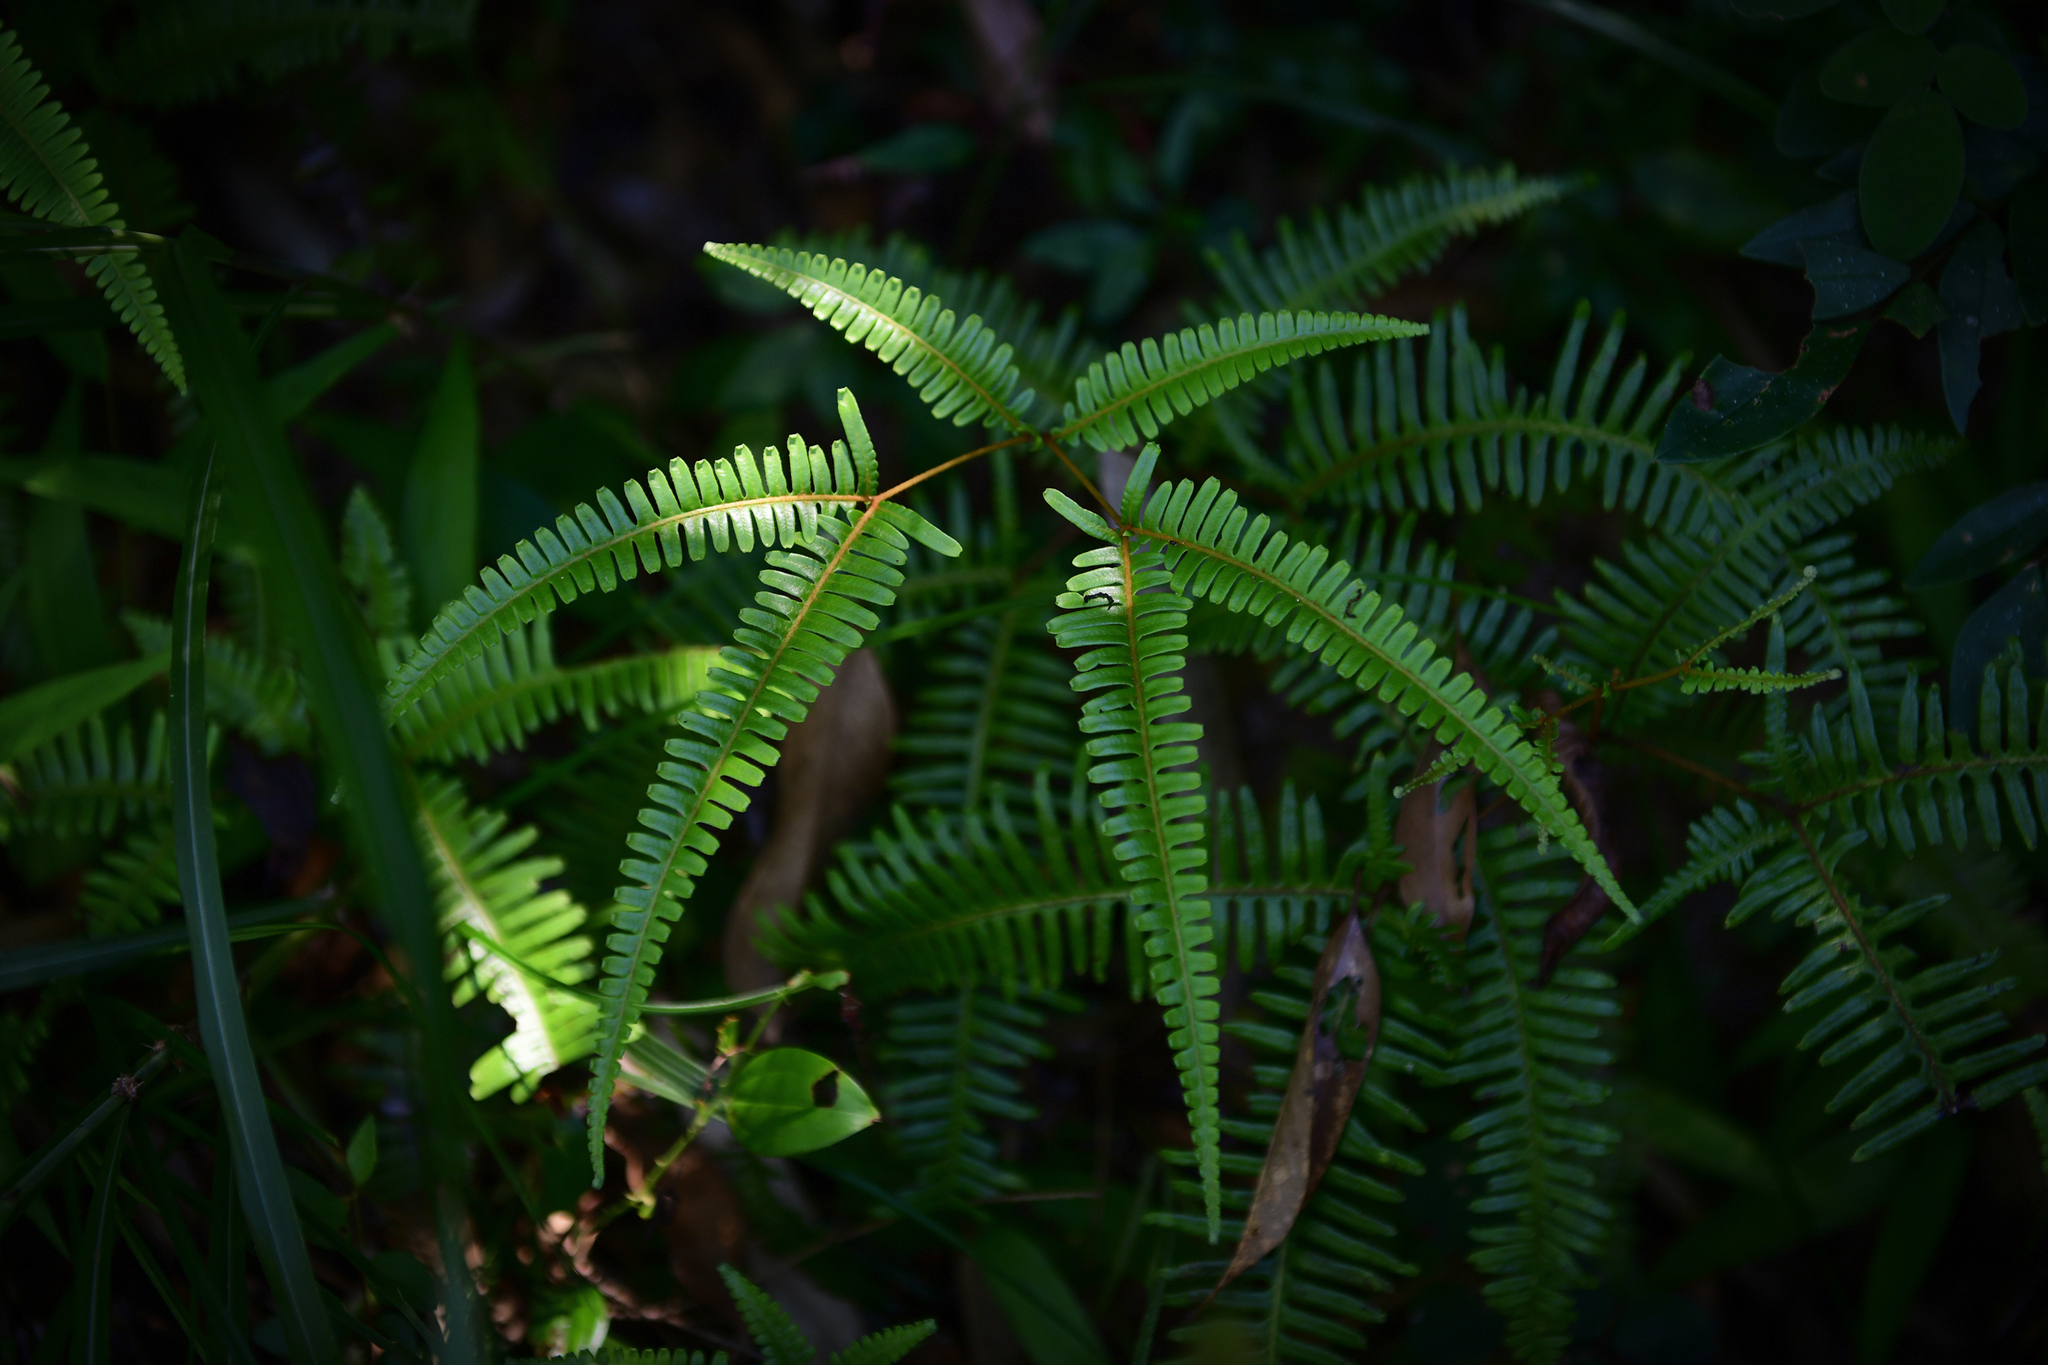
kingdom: Plantae
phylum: Tracheophyta
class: Polypodiopsida
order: Gleicheniales
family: Gleicheniaceae
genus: Dicranopteris
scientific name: Dicranopteris pedata
